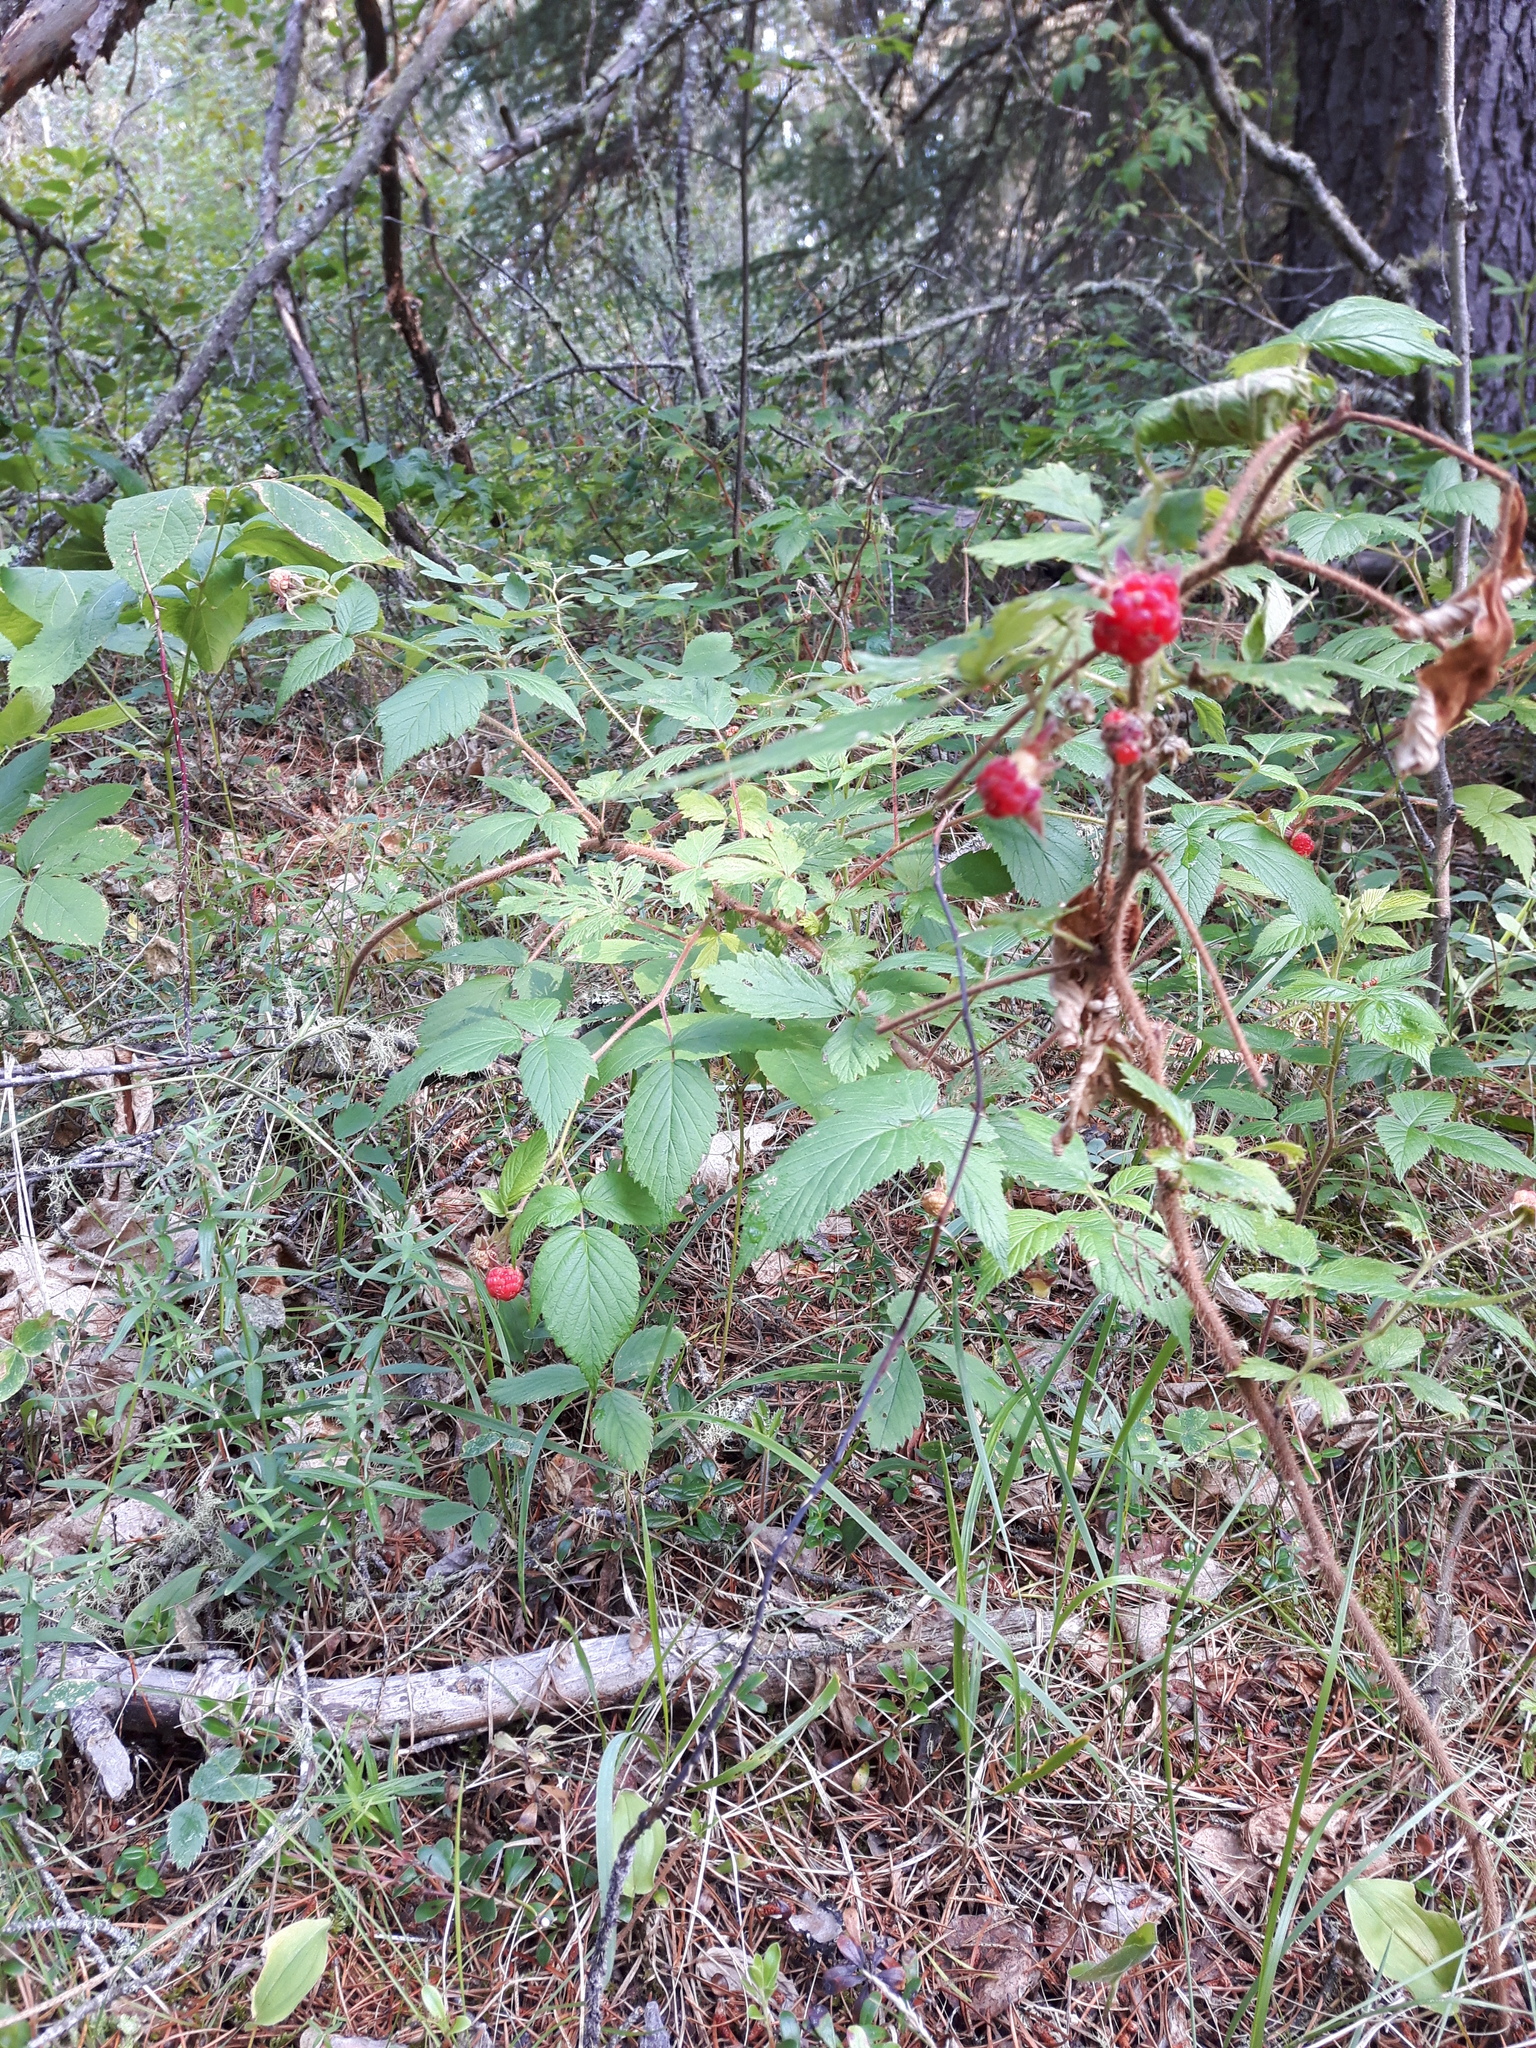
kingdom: Plantae
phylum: Tracheophyta
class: Magnoliopsida
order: Rosales
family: Rosaceae
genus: Rubus
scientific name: Rubus idaeus
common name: Raspberry
